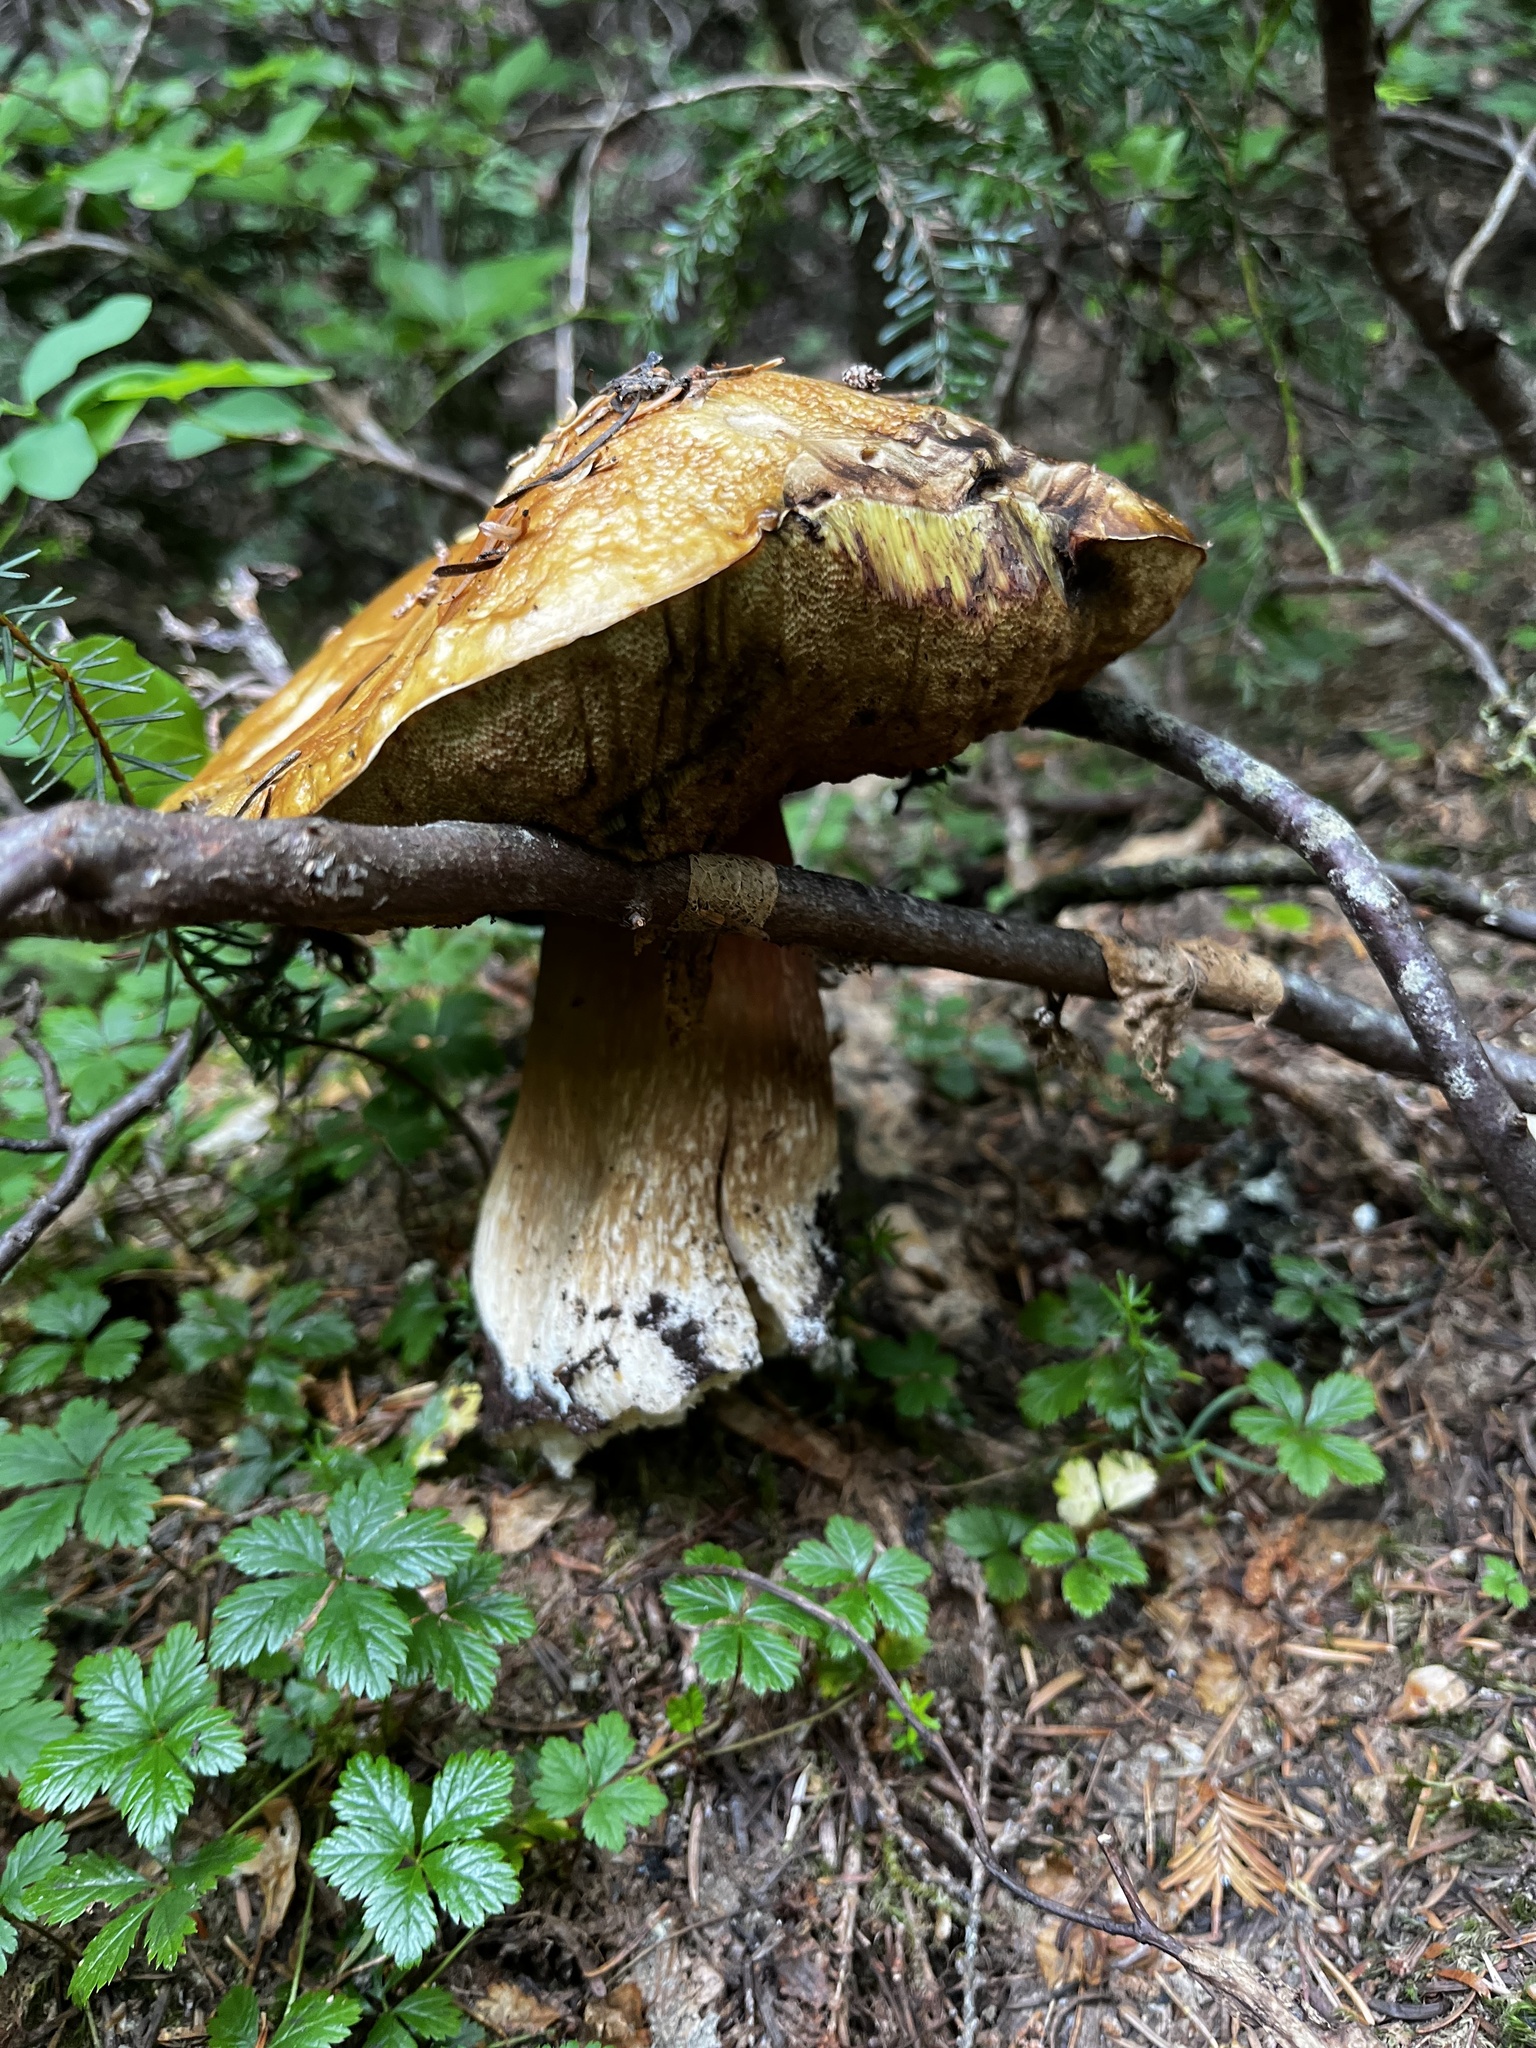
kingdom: Fungi
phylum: Basidiomycota
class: Agaricomycetes
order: Boletales
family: Boletaceae
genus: Boletus
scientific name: Boletus edulis
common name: Cep
